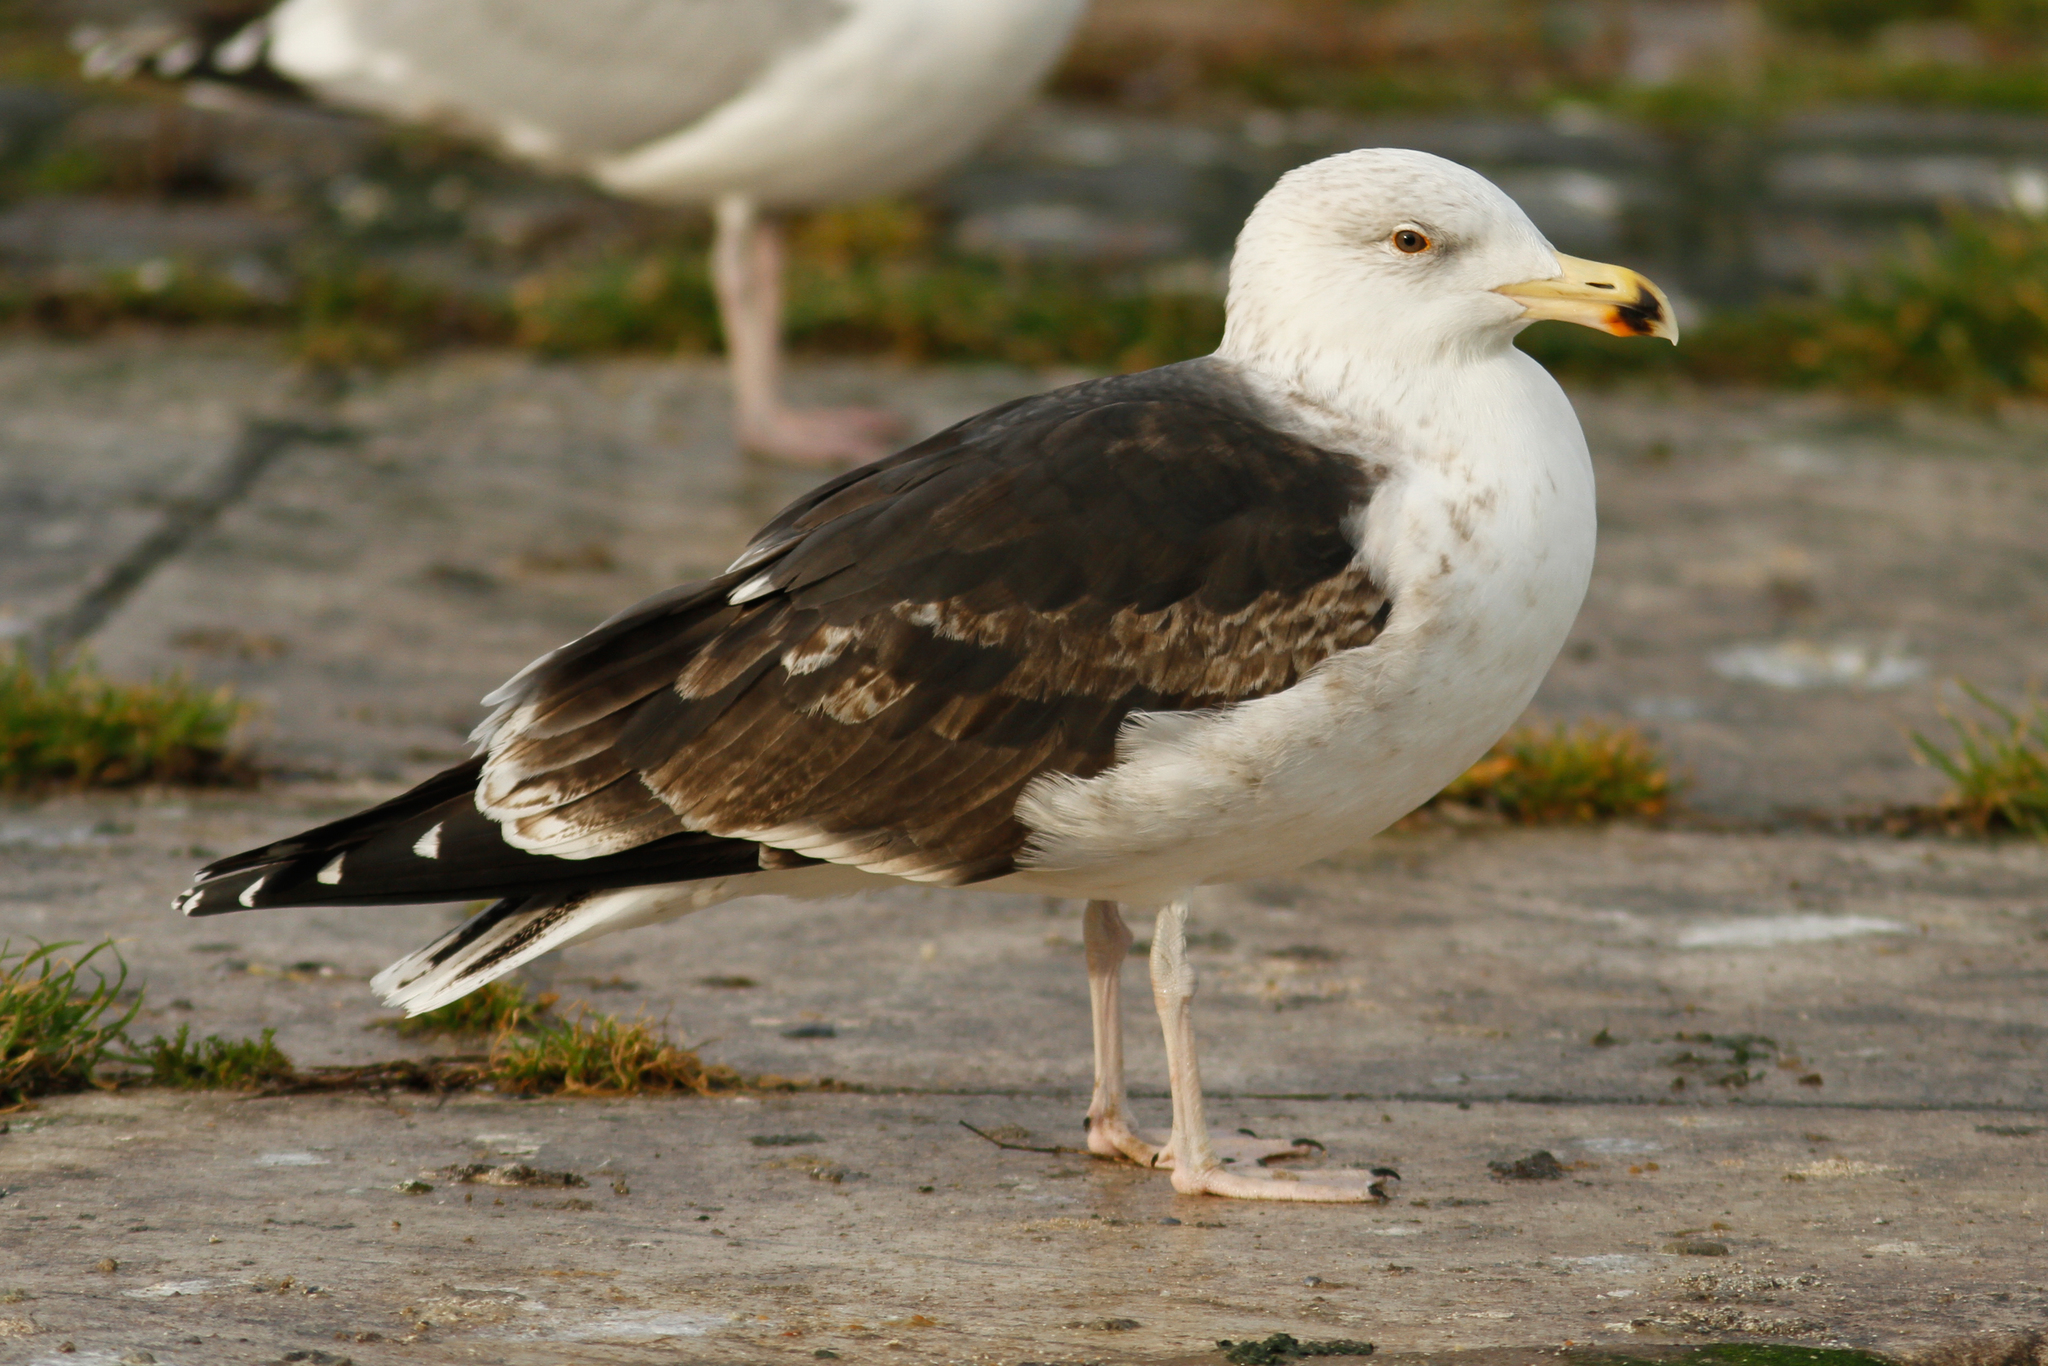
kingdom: Animalia
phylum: Chordata
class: Aves
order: Charadriiformes
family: Laridae
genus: Larus
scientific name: Larus marinus
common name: Great black-backed gull
